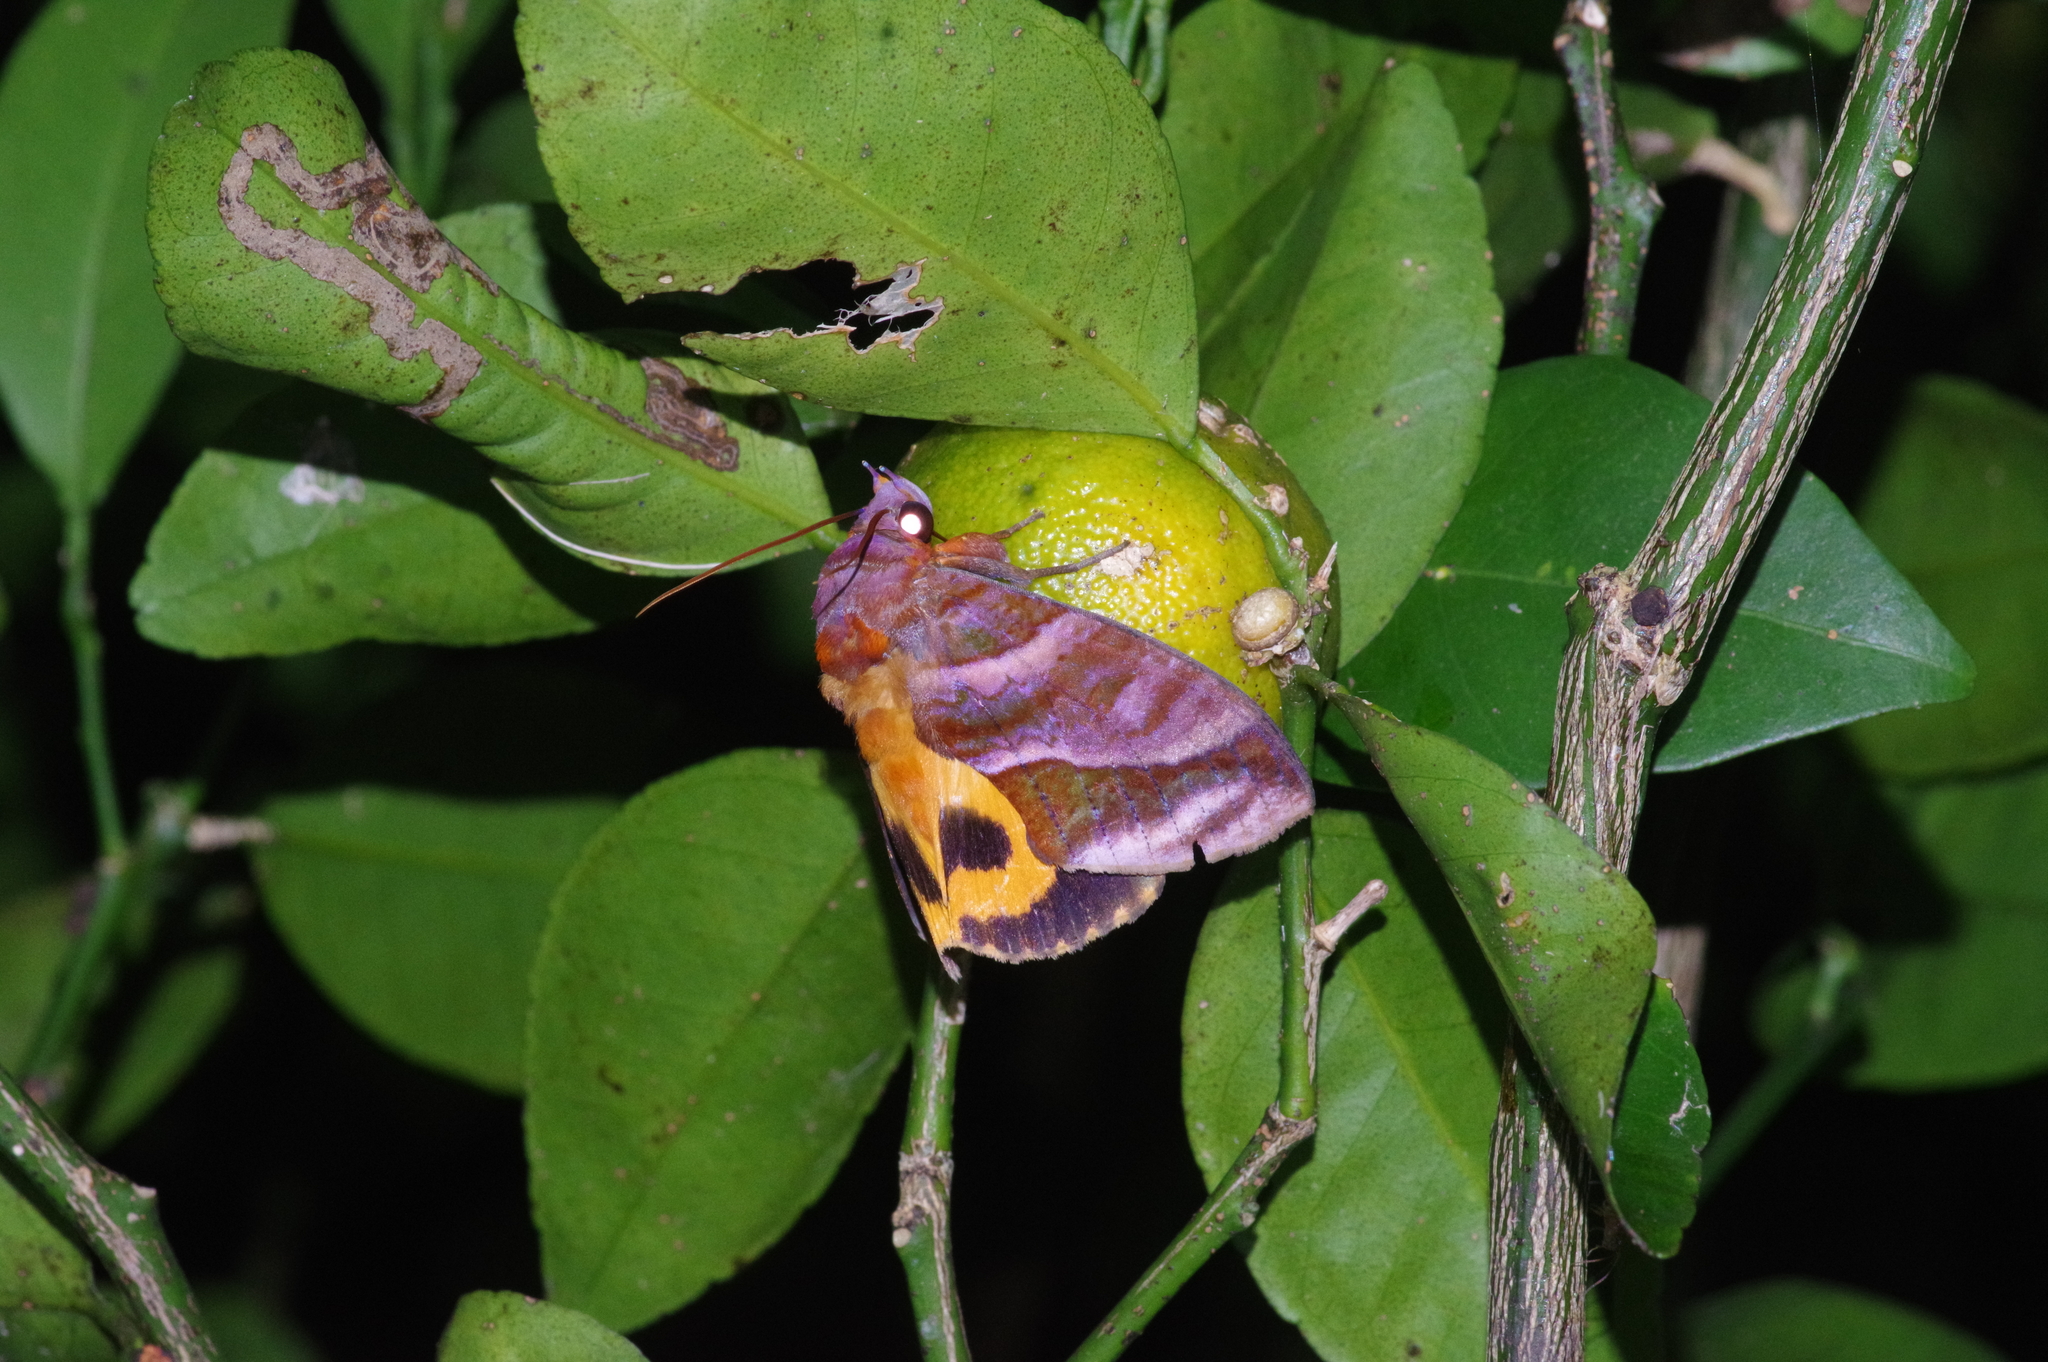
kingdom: Animalia
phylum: Arthropoda
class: Insecta
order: Lepidoptera
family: Erebidae
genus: Eudocima
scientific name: Eudocima homaena
